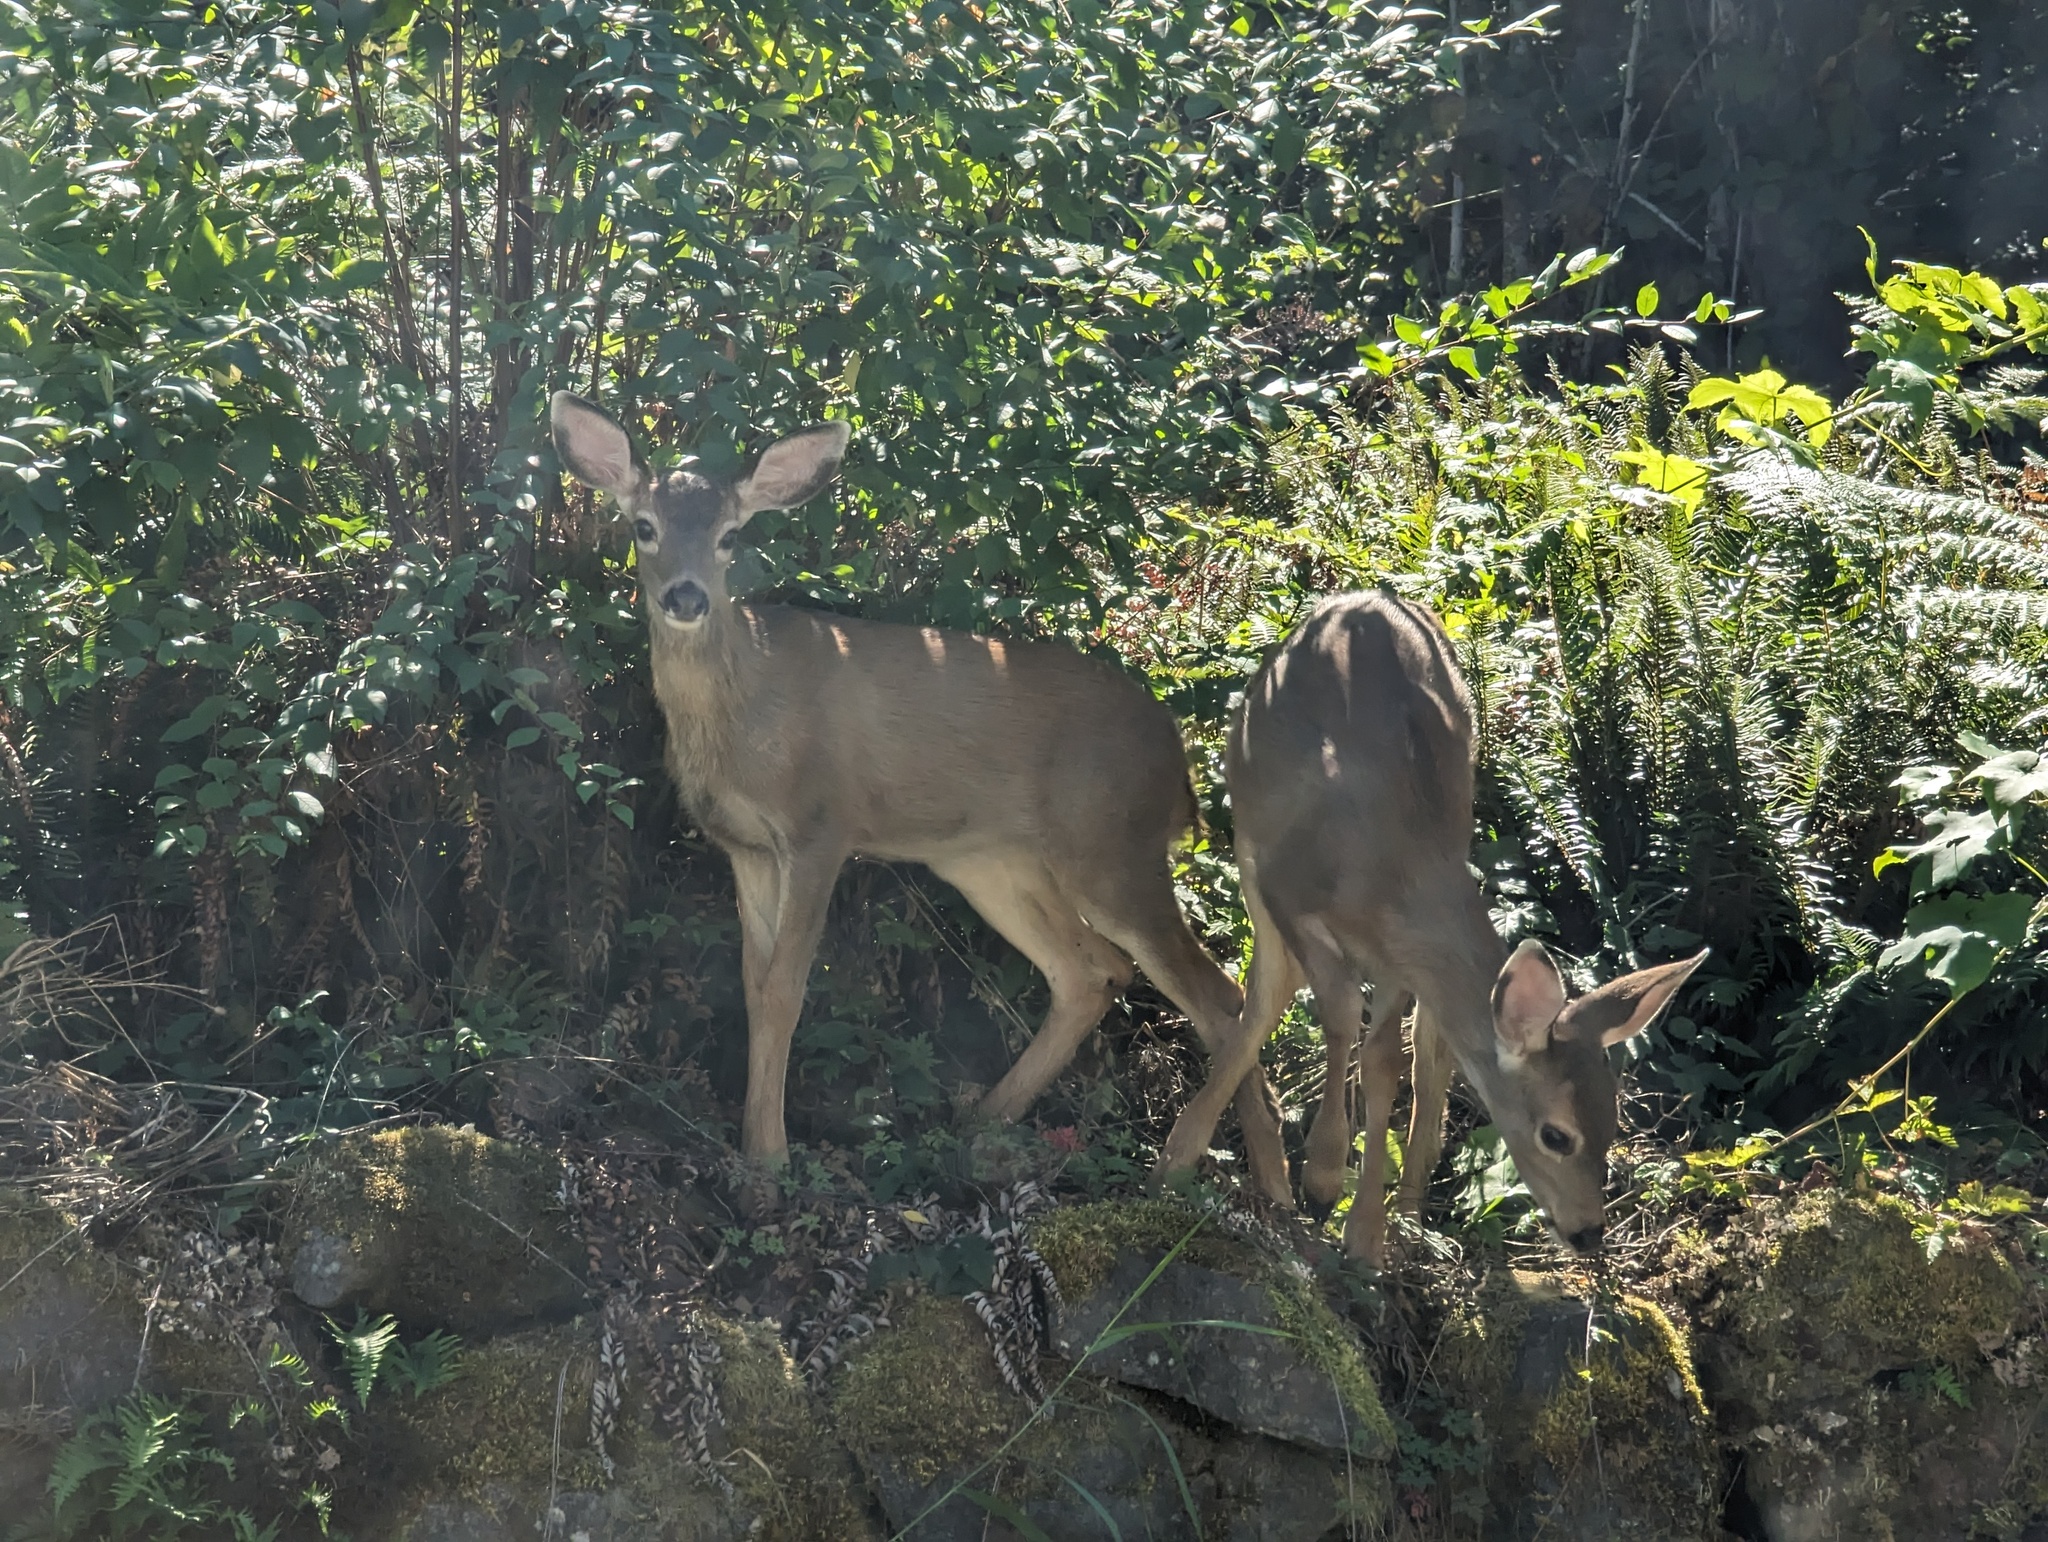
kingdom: Animalia
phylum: Chordata
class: Mammalia
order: Artiodactyla
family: Cervidae
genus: Odocoileus
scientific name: Odocoileus hemionus
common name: Mule deer
